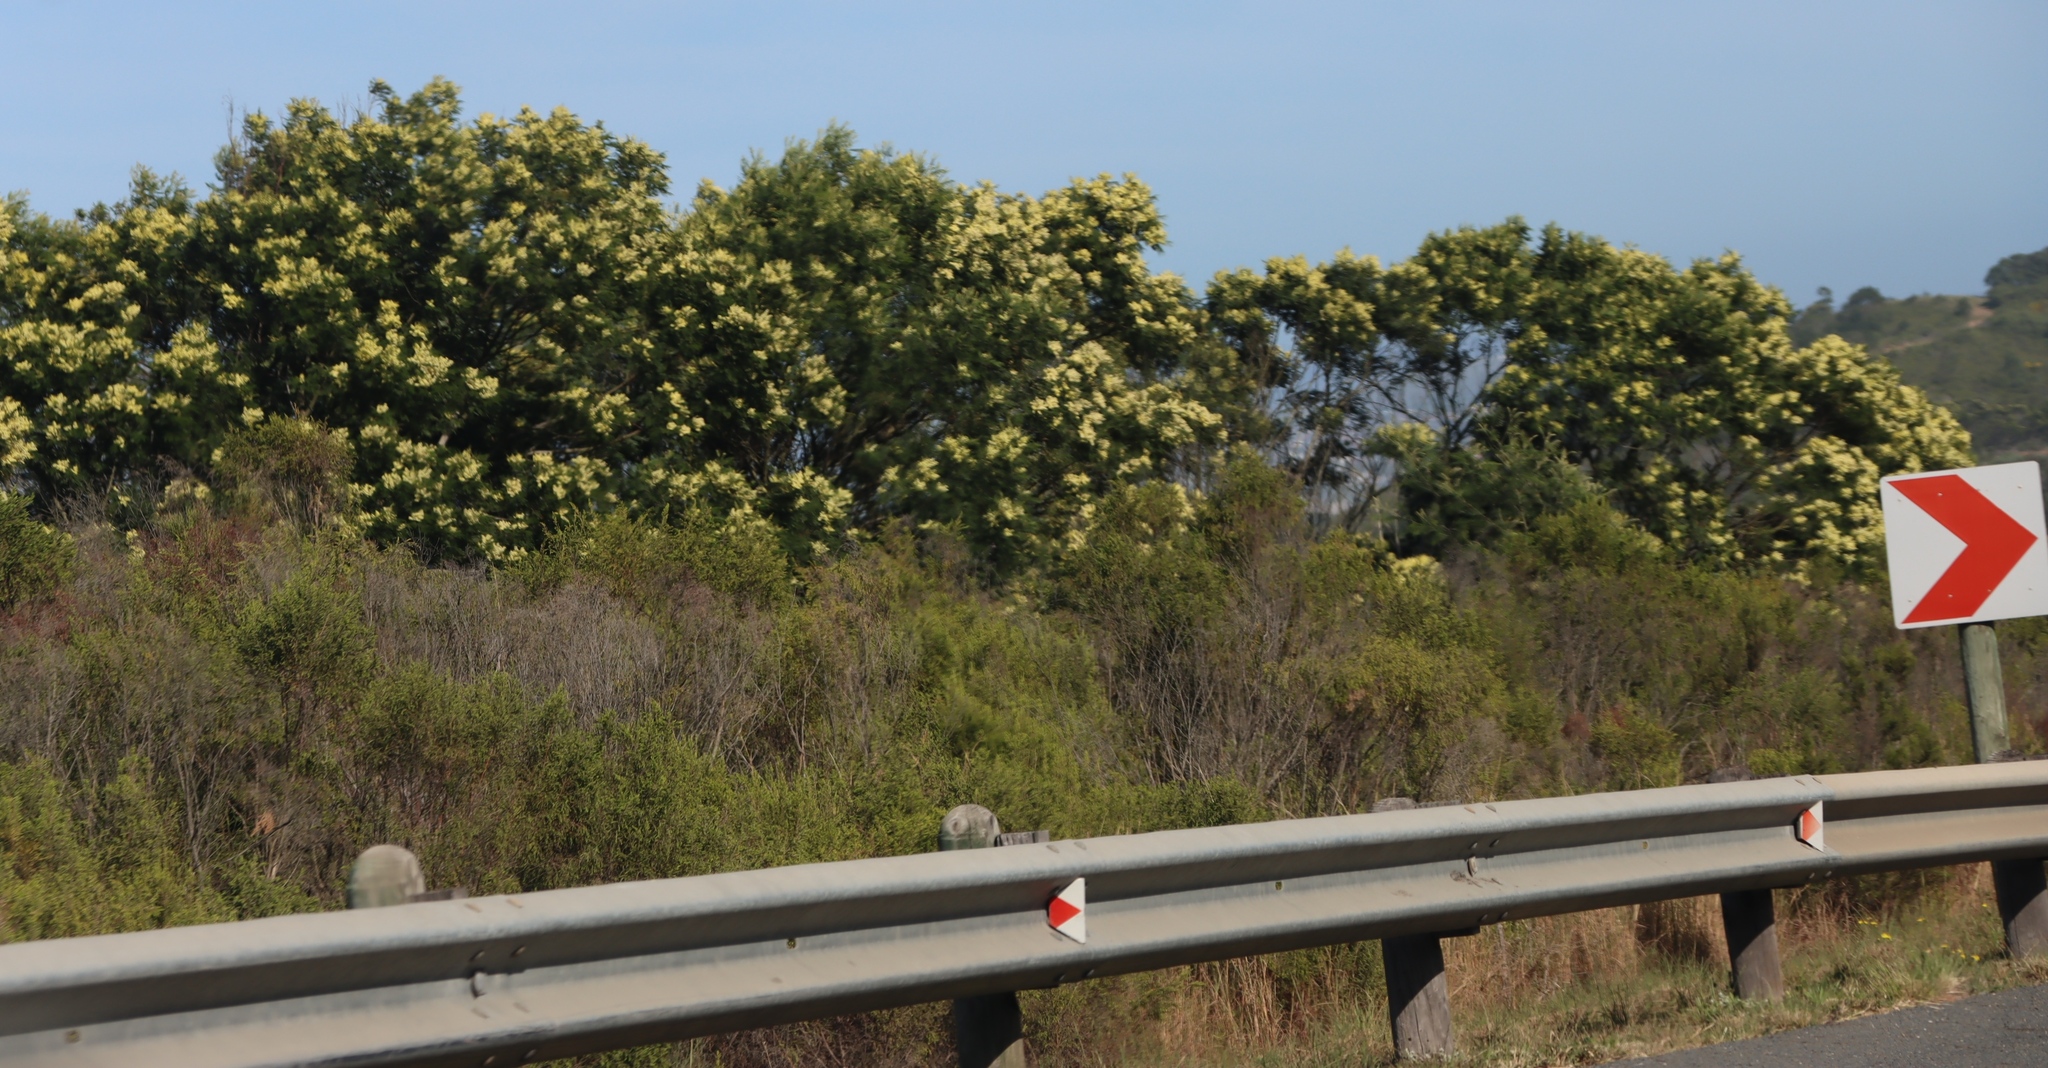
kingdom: Plantae
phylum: Tracheophyta
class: Magnoliopsida
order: Fabales
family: Fabaceae
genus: Acacia
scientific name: Acacia mearnsii
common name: Black wattle
